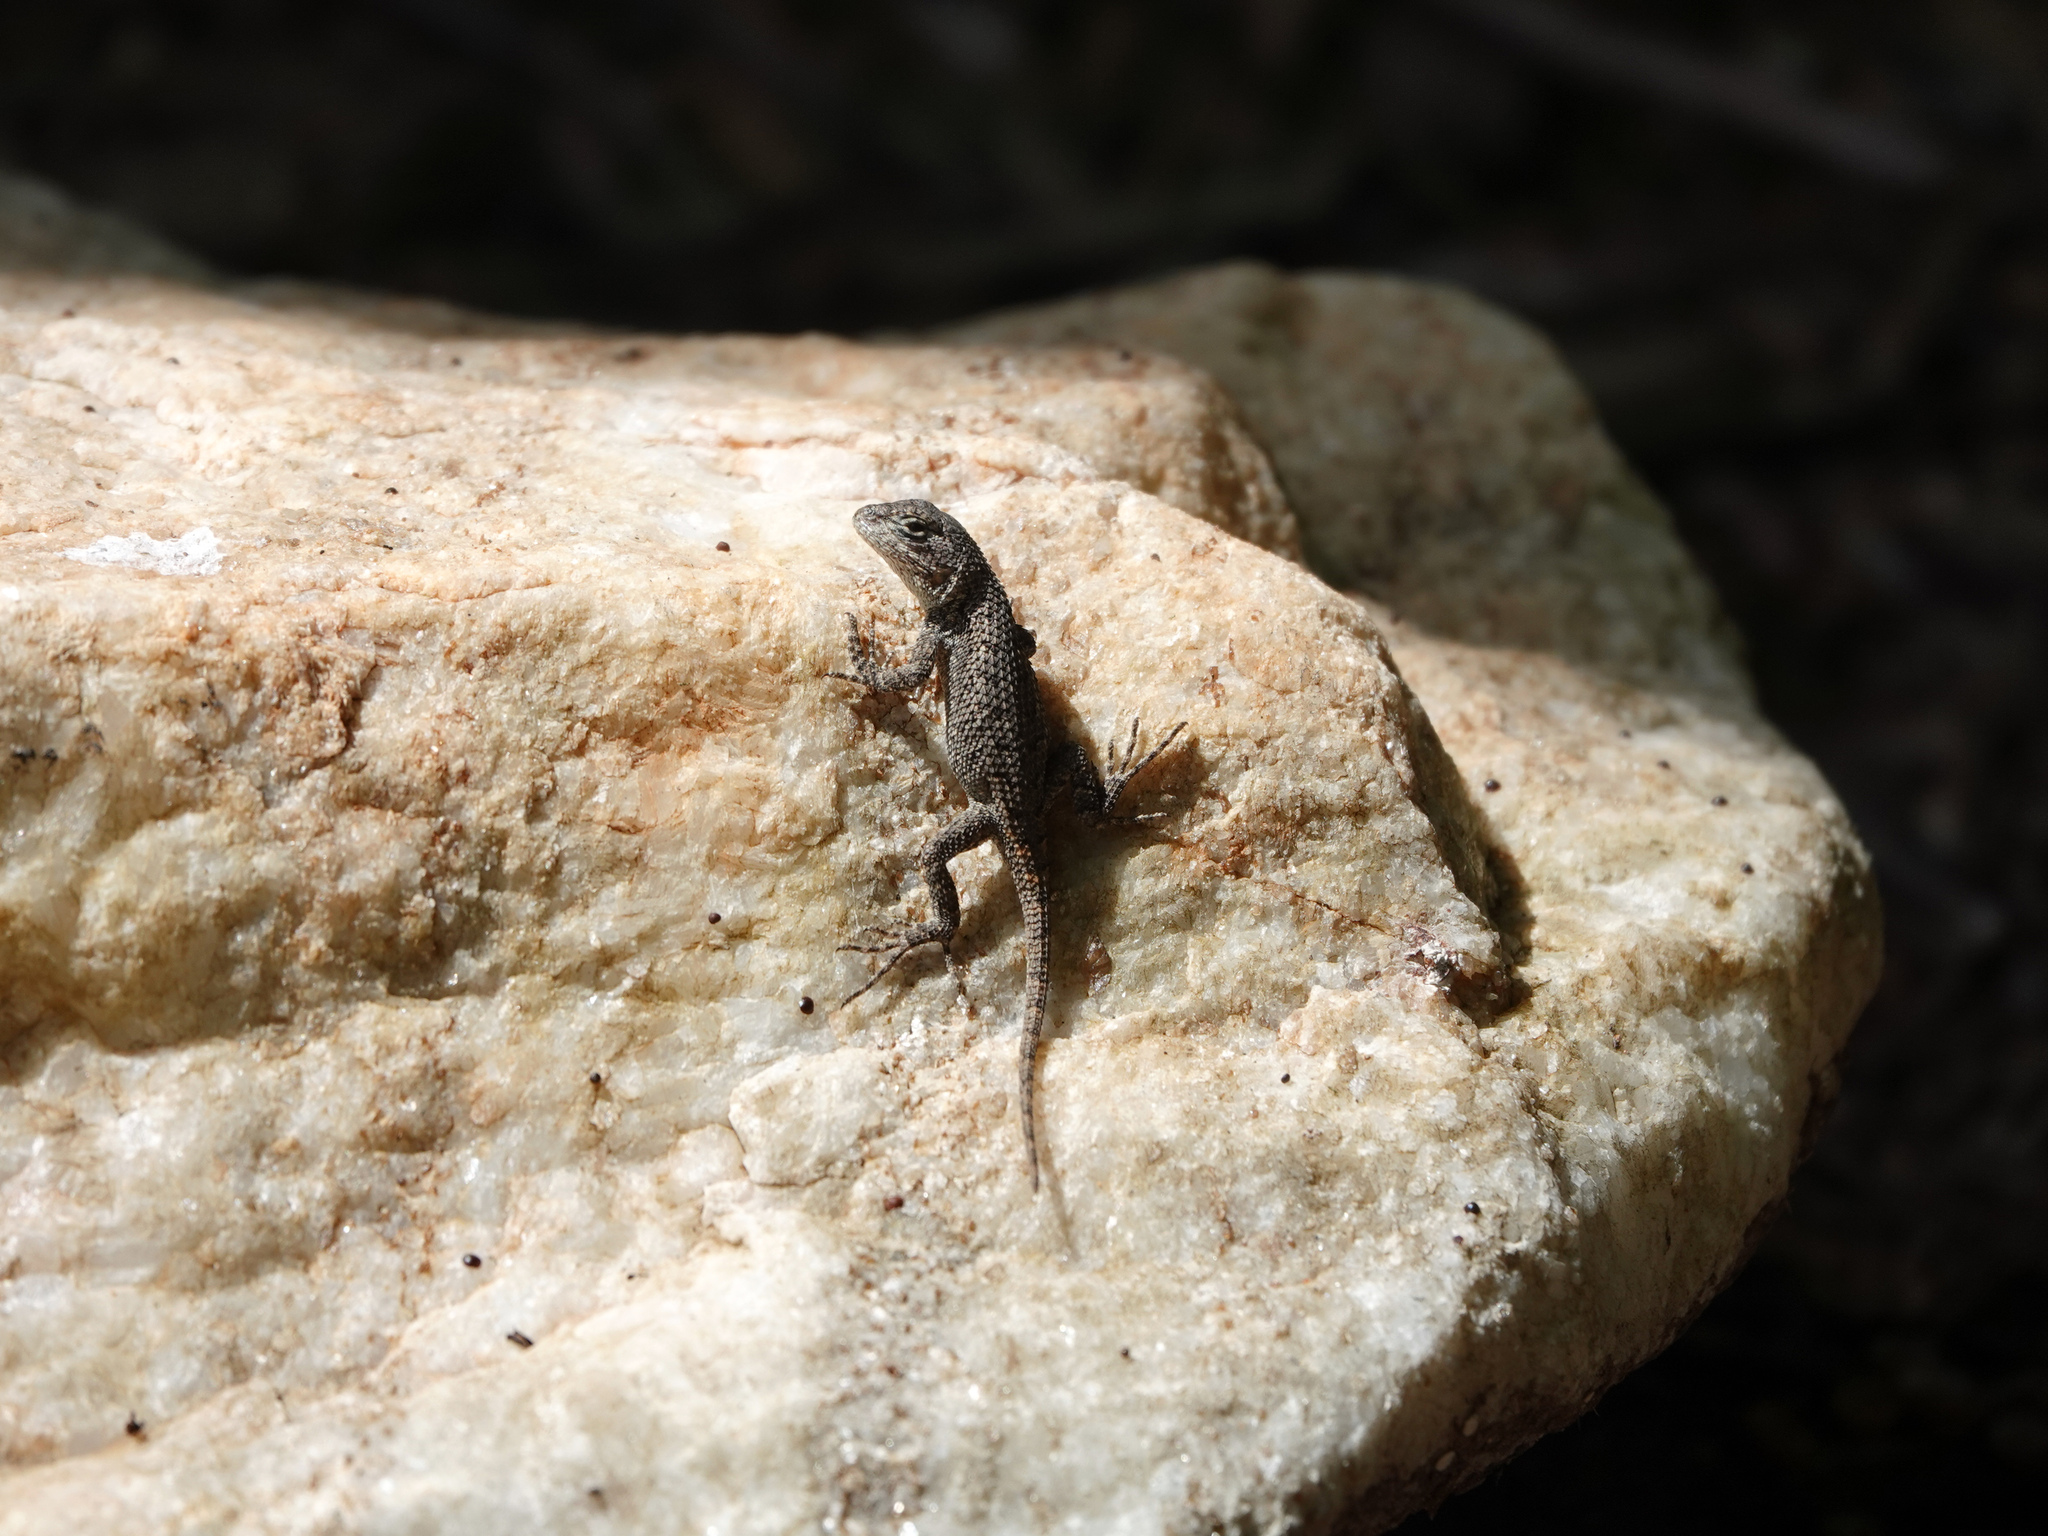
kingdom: Animalia
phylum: Chordata
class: Squamata
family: Phrynosomatidae
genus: Sceloporus
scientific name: Sceloporus undulatus
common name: Eastern fence lizard
